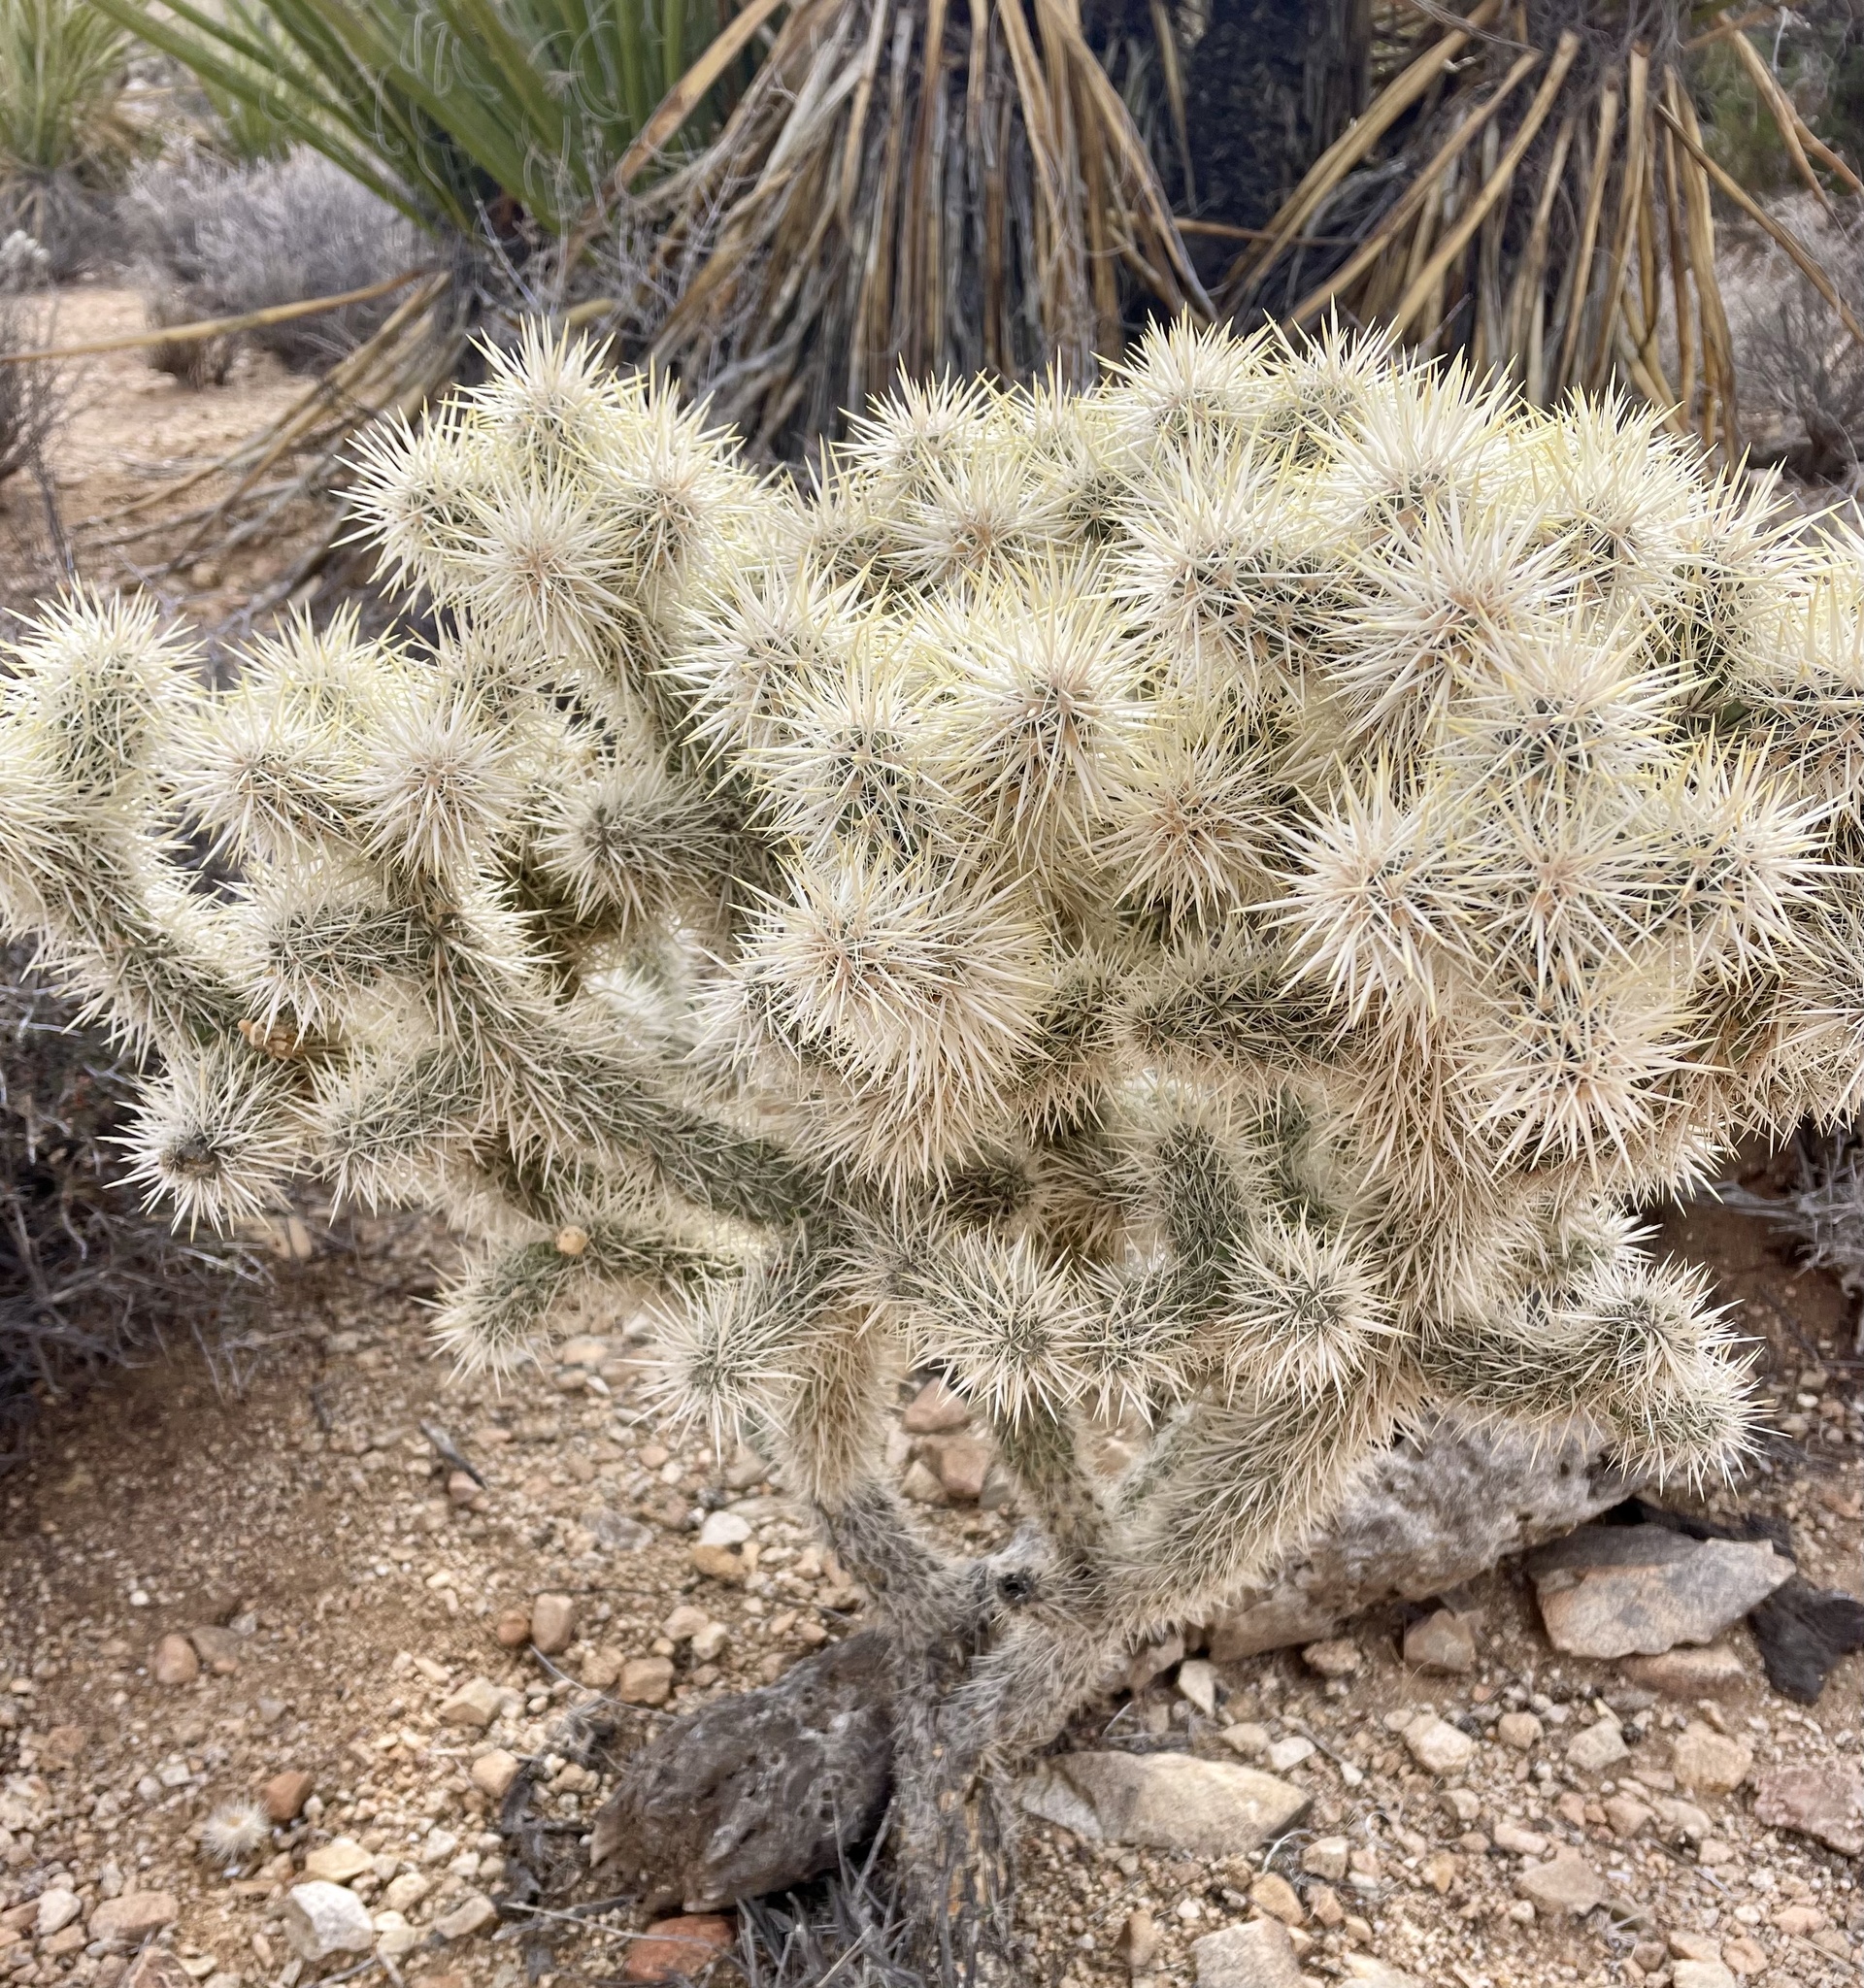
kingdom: Plantae
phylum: Tracheophyta
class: Magnoliopsida
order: Caryophyllales
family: Cactaceae
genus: Cylindropuntia
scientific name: Cylindropuntia echinocarpa
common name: Ground cholla
